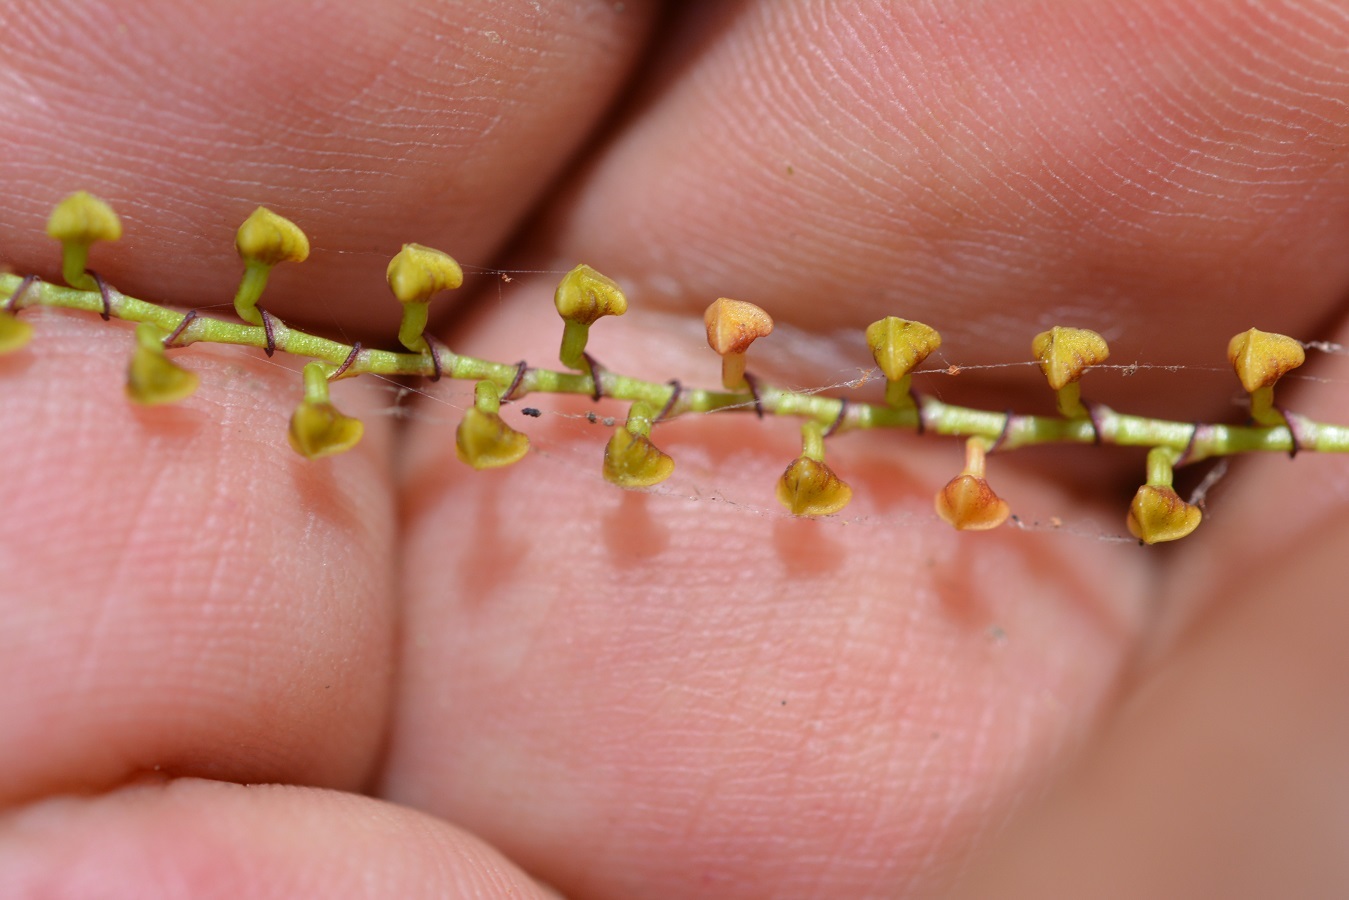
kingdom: Plantae
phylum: Tracheophyta
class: Liliopsida
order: Asparagales
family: Orchidaceae
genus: Stelis
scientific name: Stelis purpurascens
